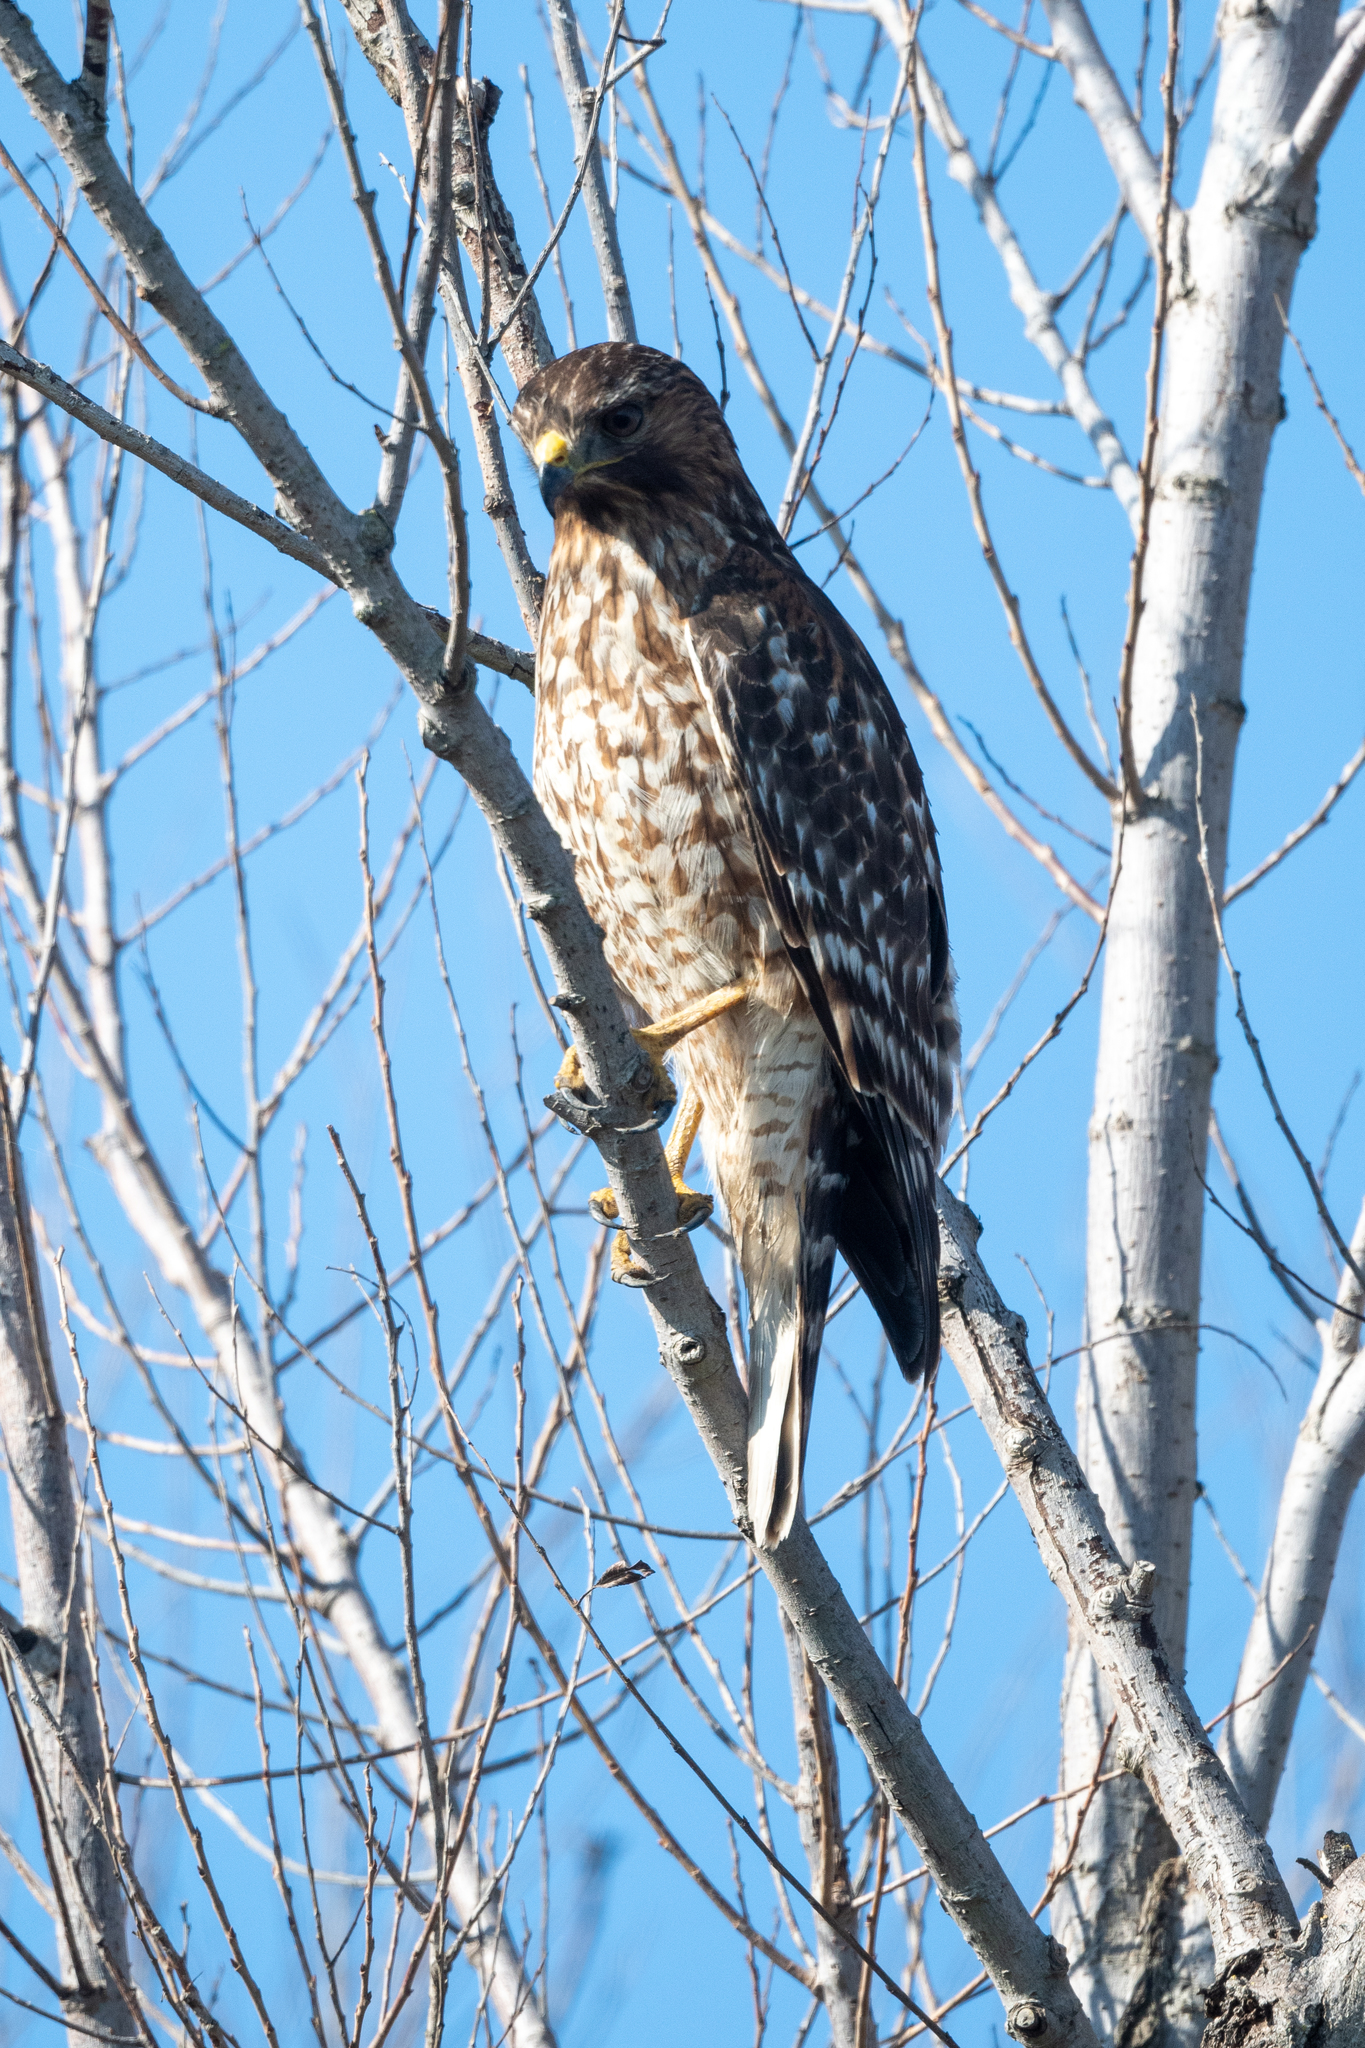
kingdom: Animalia
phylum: Chordata
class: Aves
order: Accipitriformes
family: Accipitridae
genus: Buteo
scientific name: Buteo lineatus
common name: Red-shouldered hawk
